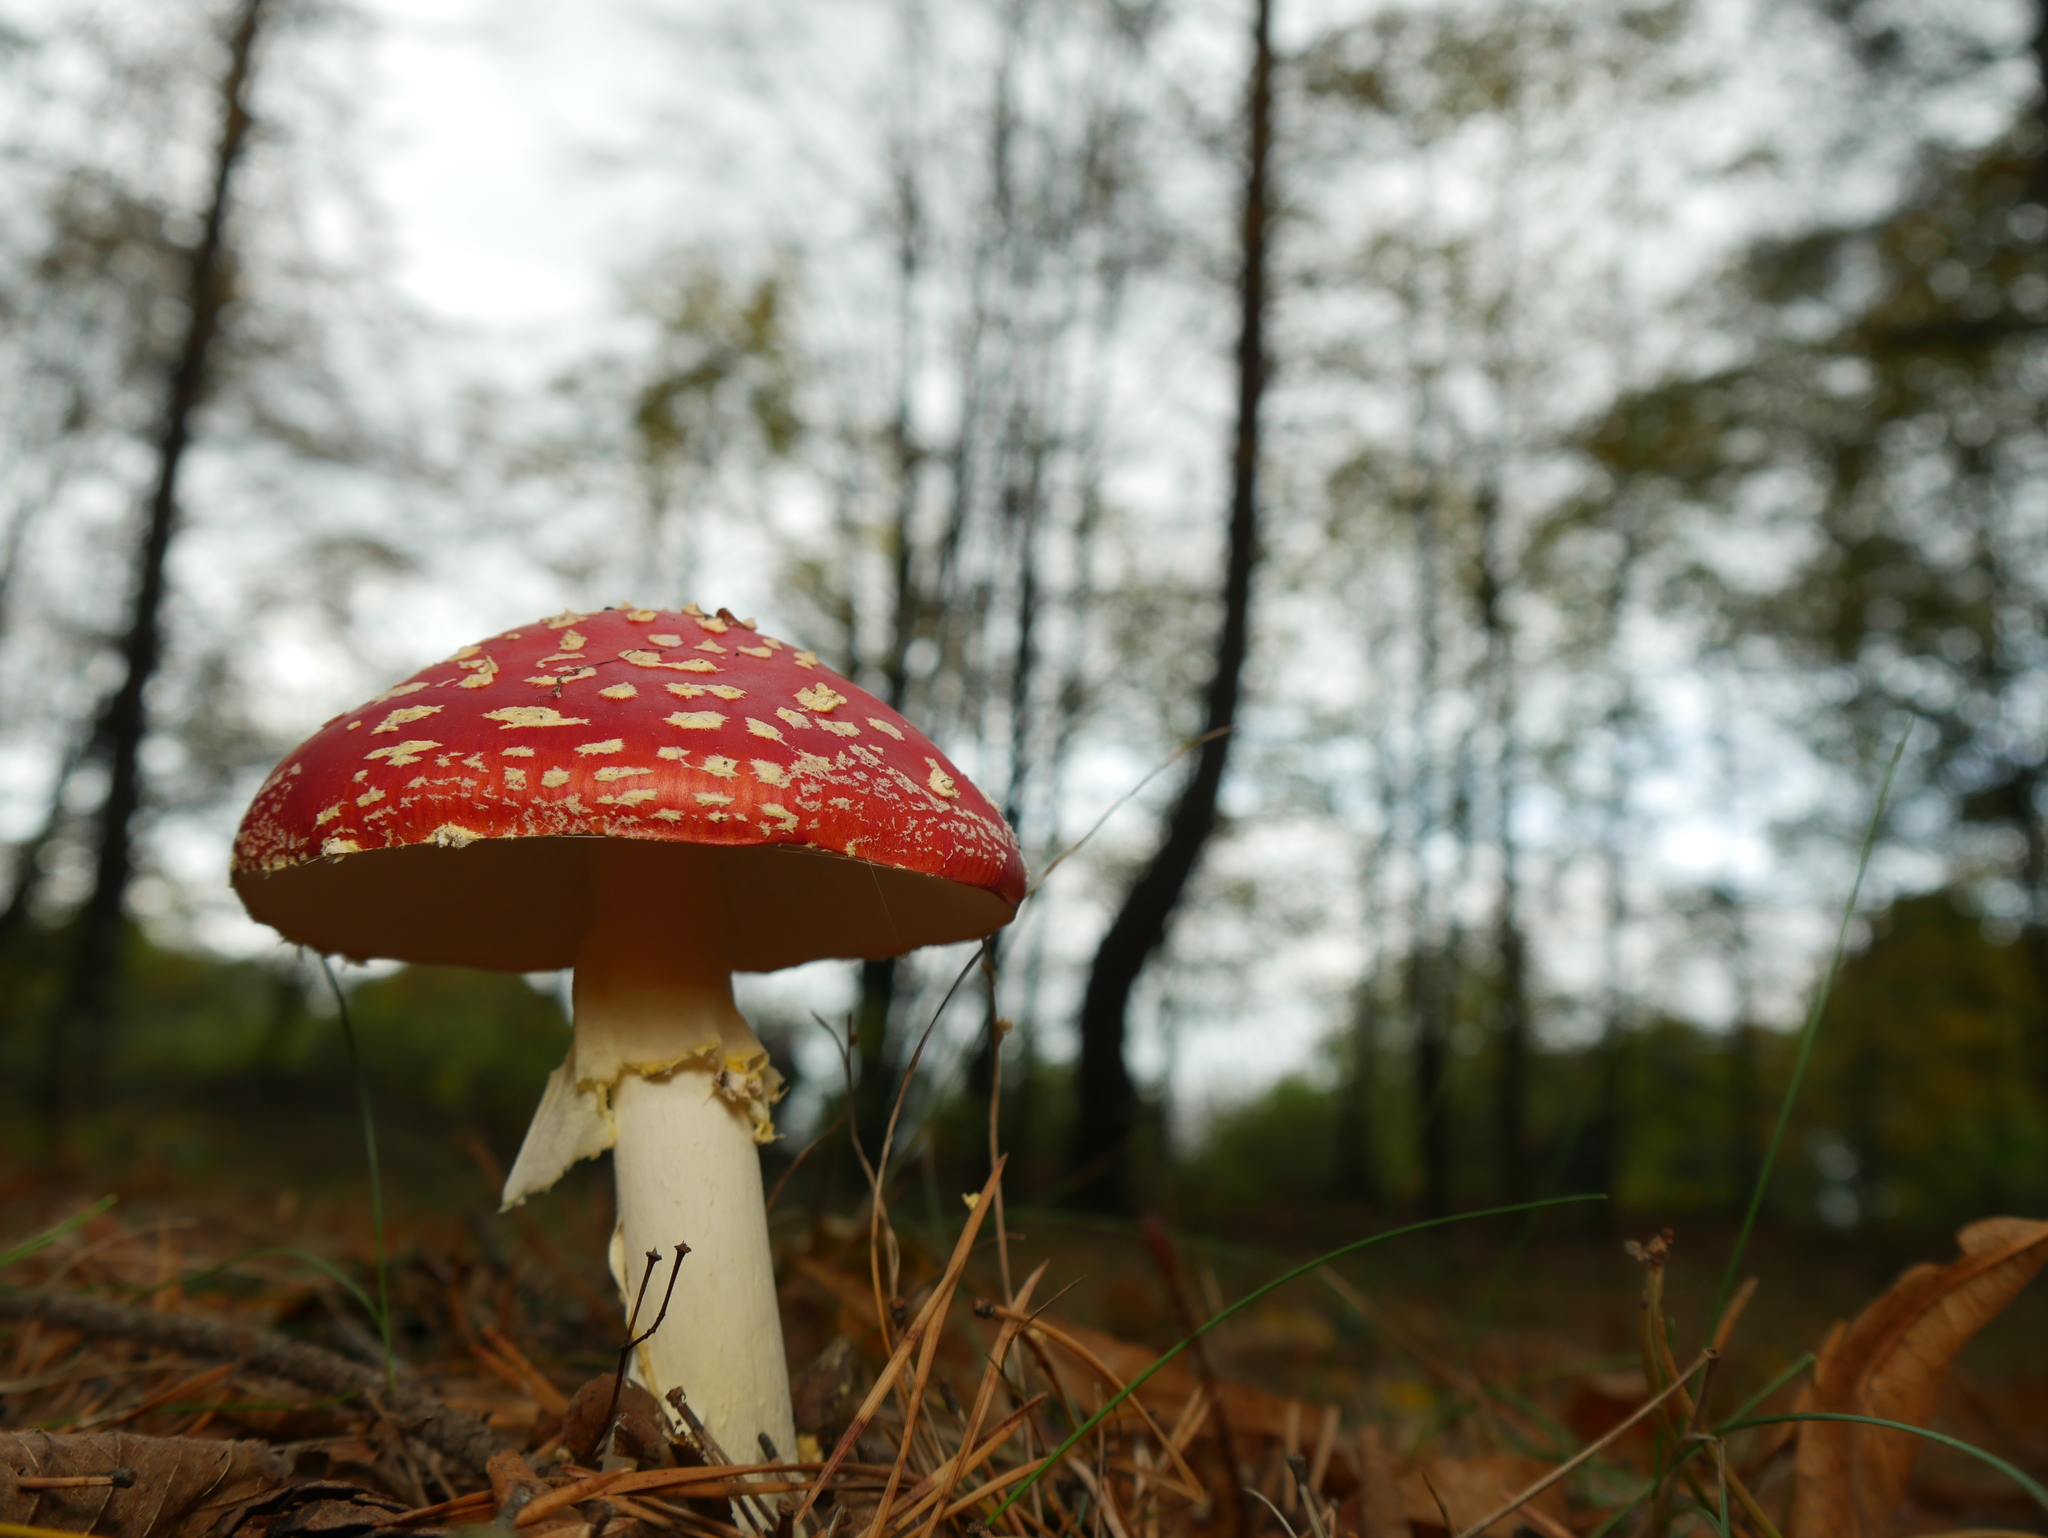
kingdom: Fungi
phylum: Basidiomycota
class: Agaricomycetes
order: Agaricales
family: Amanitaceae
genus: Amanita
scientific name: Amanita muscaria
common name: Fly agaric
